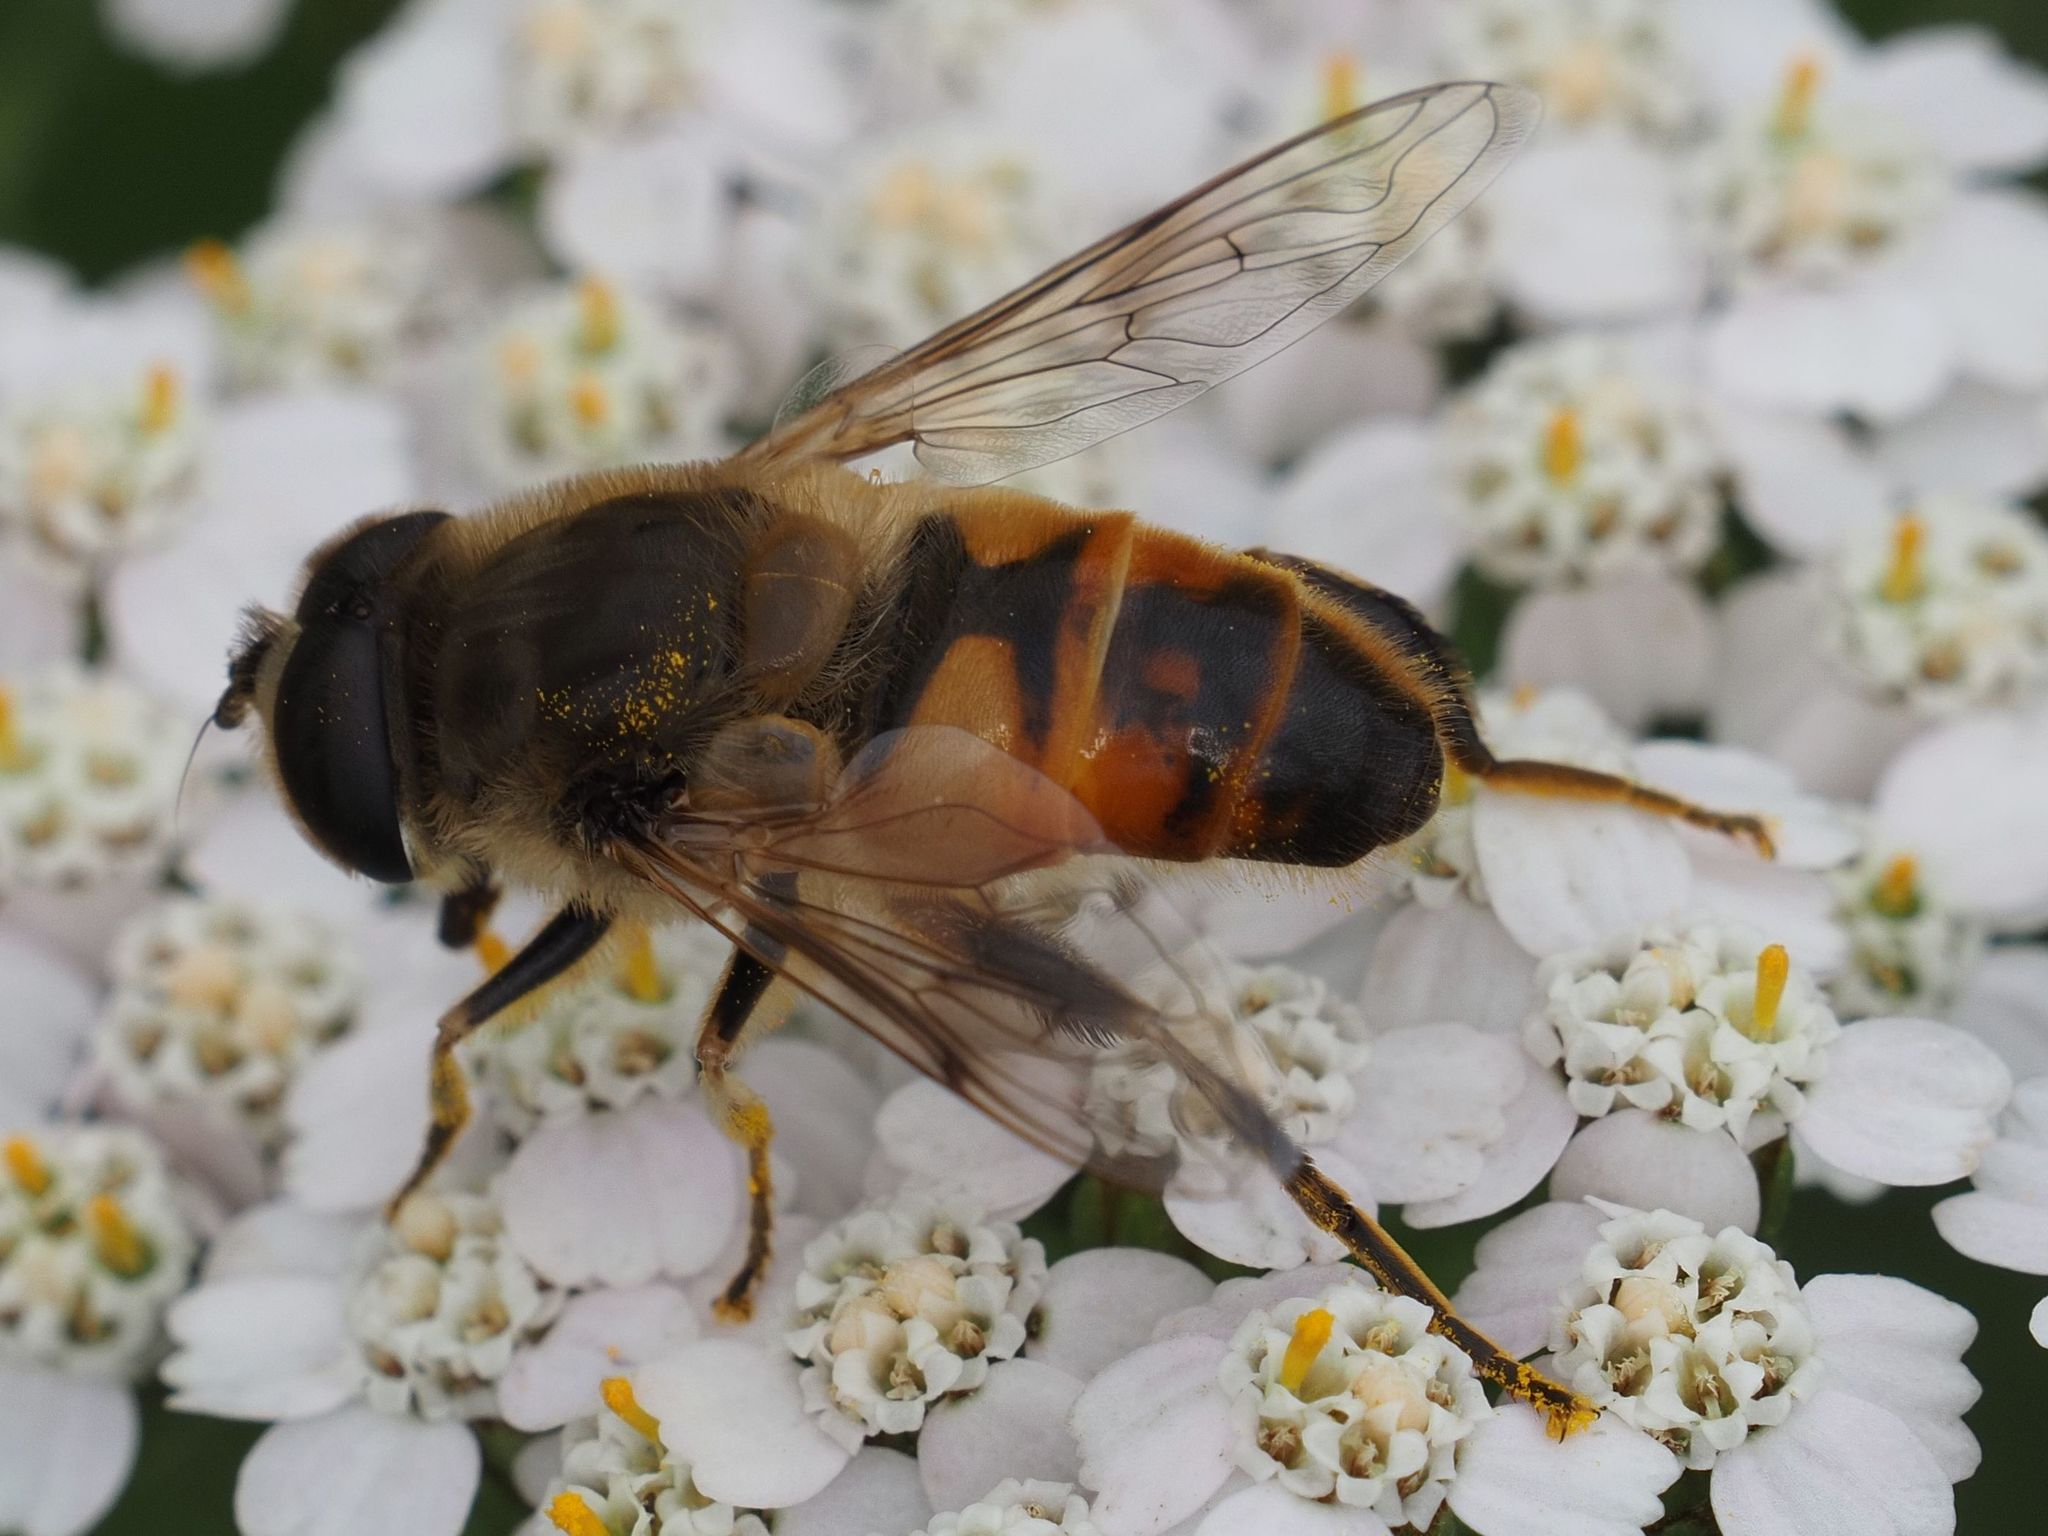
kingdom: Animalia
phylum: Arthropoda
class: Insecta
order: Diptera
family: Syrphidae
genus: Eristalis
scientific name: Eristalis tenax
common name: Drone fly
